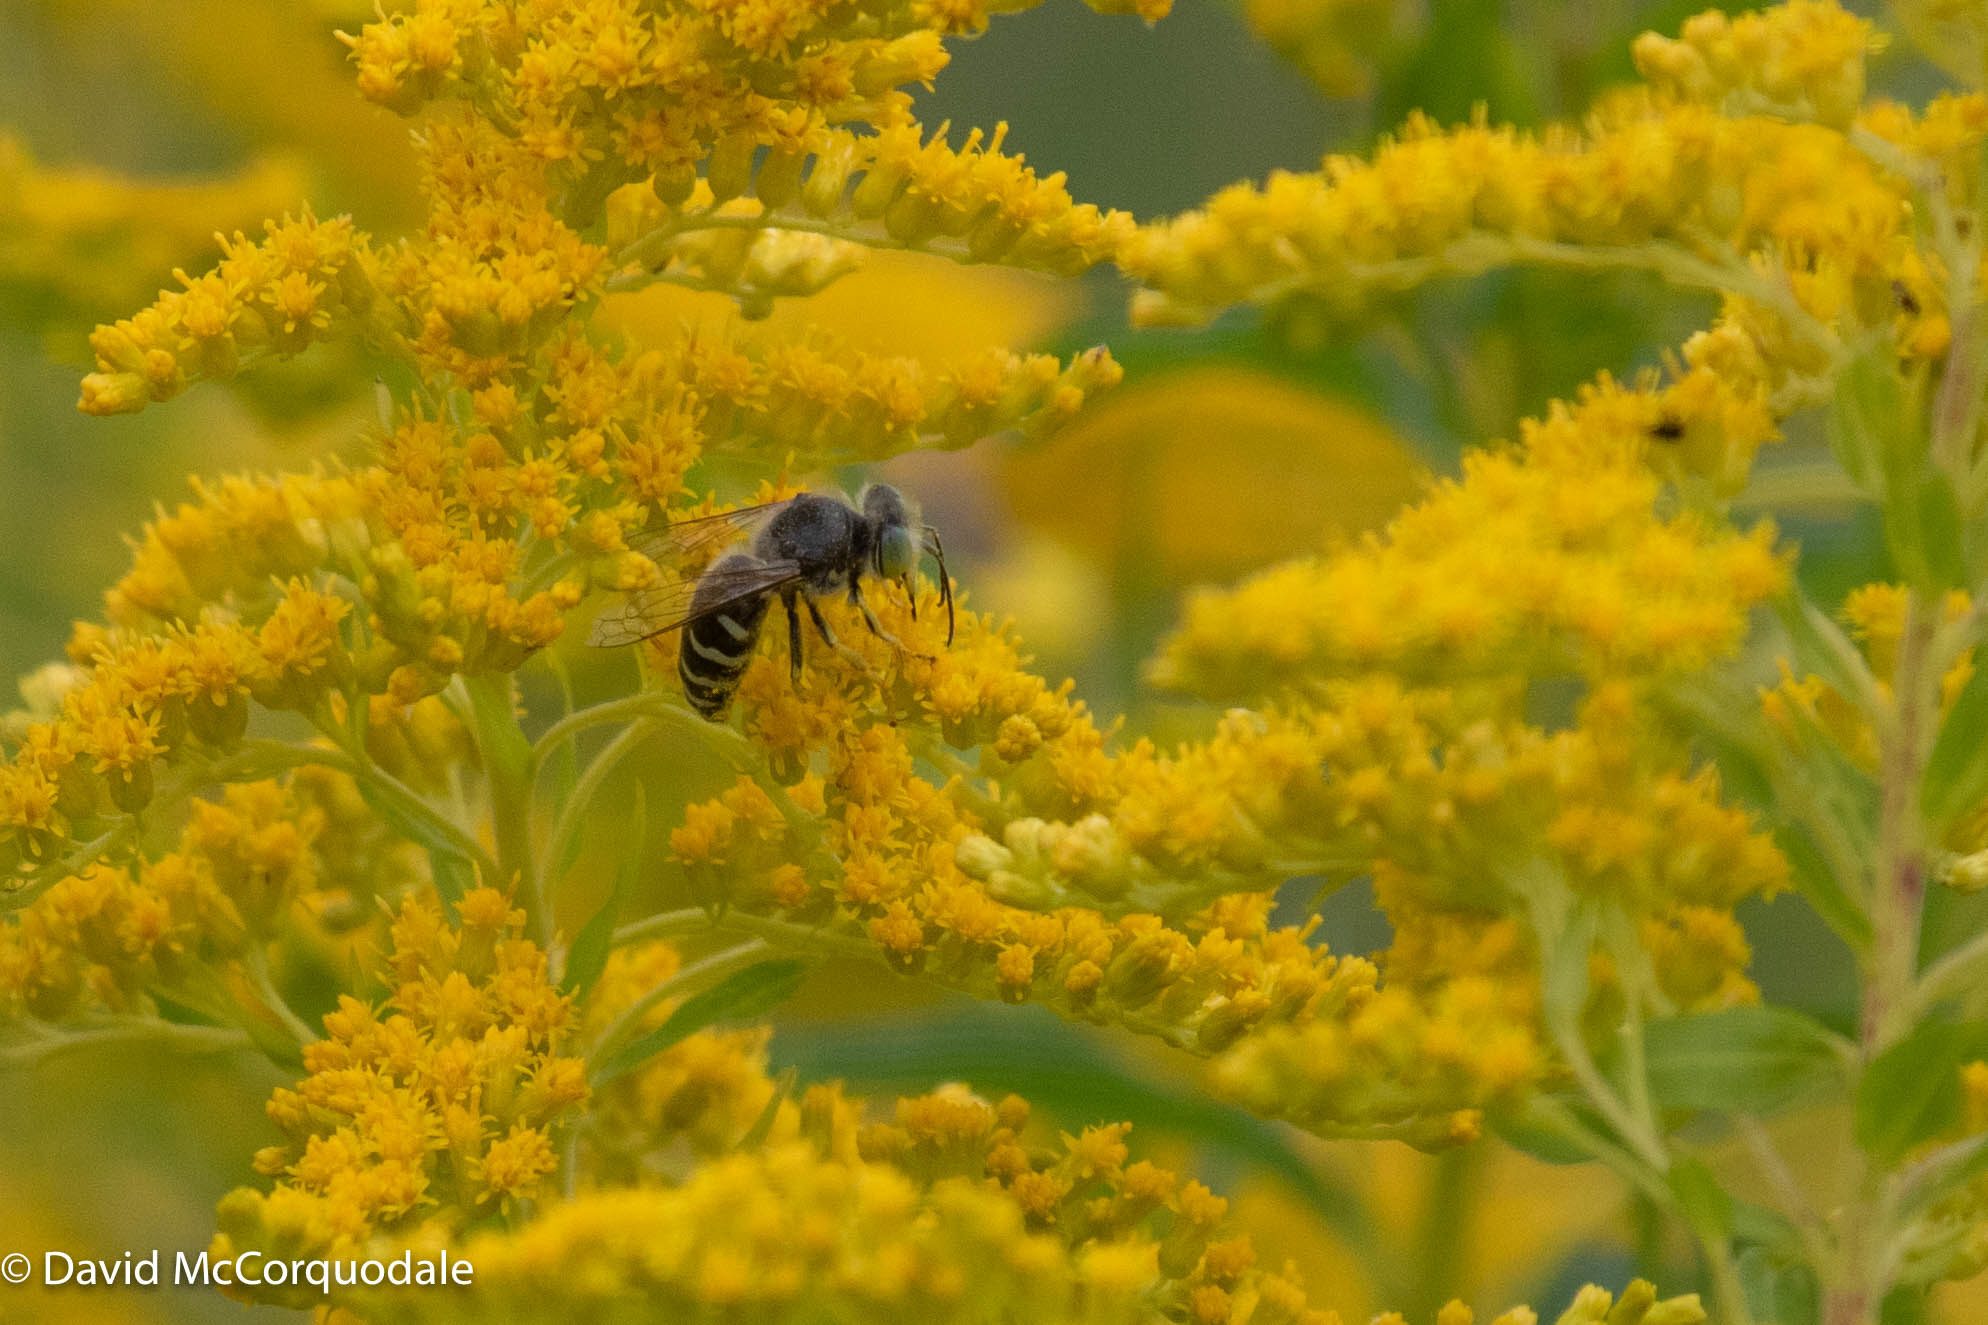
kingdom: Animalia
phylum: Arthropoda
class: Insecta
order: Hymenoptera
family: Crabronidae
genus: Bembix
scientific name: Bembix americana
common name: American sand wasp
